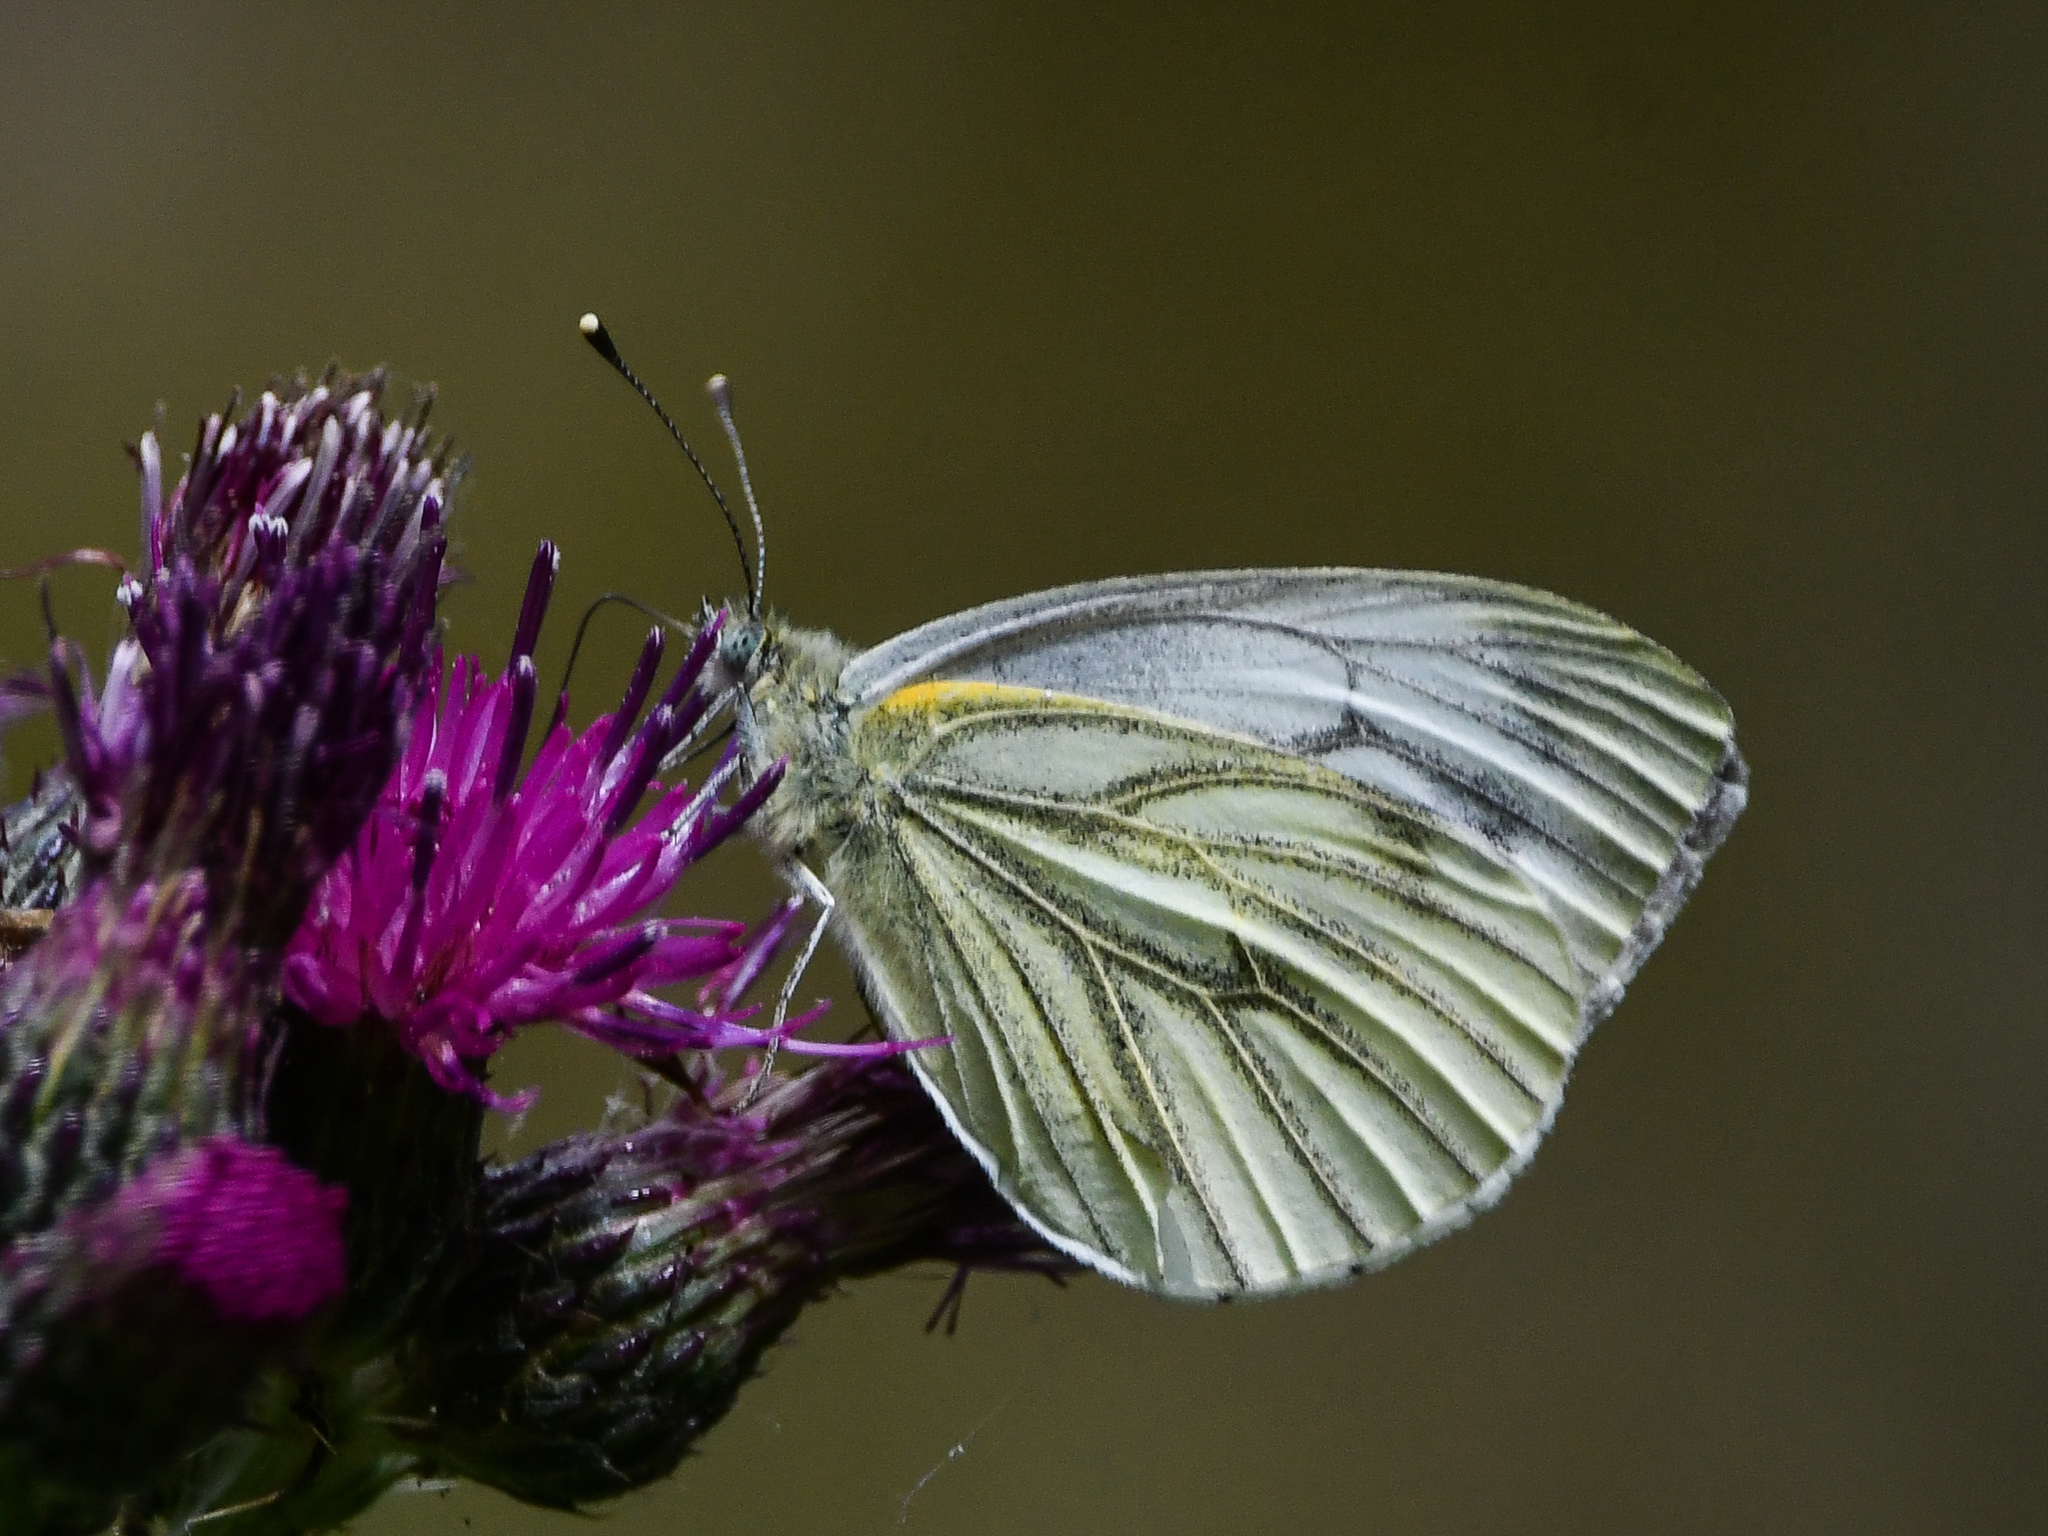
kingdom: Animalia
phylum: Arthropoda
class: Insecta
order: Lepidoptera
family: Pieridae
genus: Pieris
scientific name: Pieris napi
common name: Green-veined white
